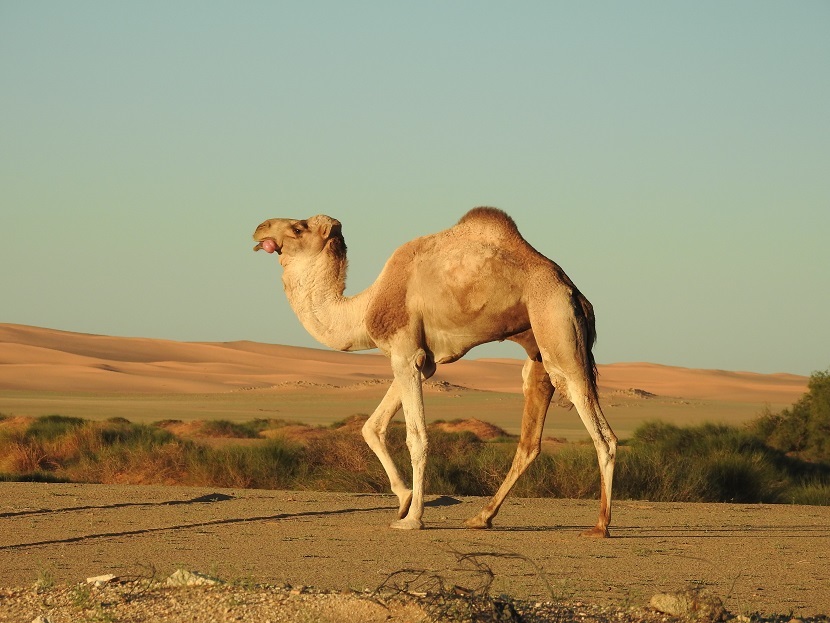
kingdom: Animalia
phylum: Chordata
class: Mammalia
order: Artiodactyla
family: Camelidae
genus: Camelus
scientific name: Camelus dromedarius
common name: One-humped camel
